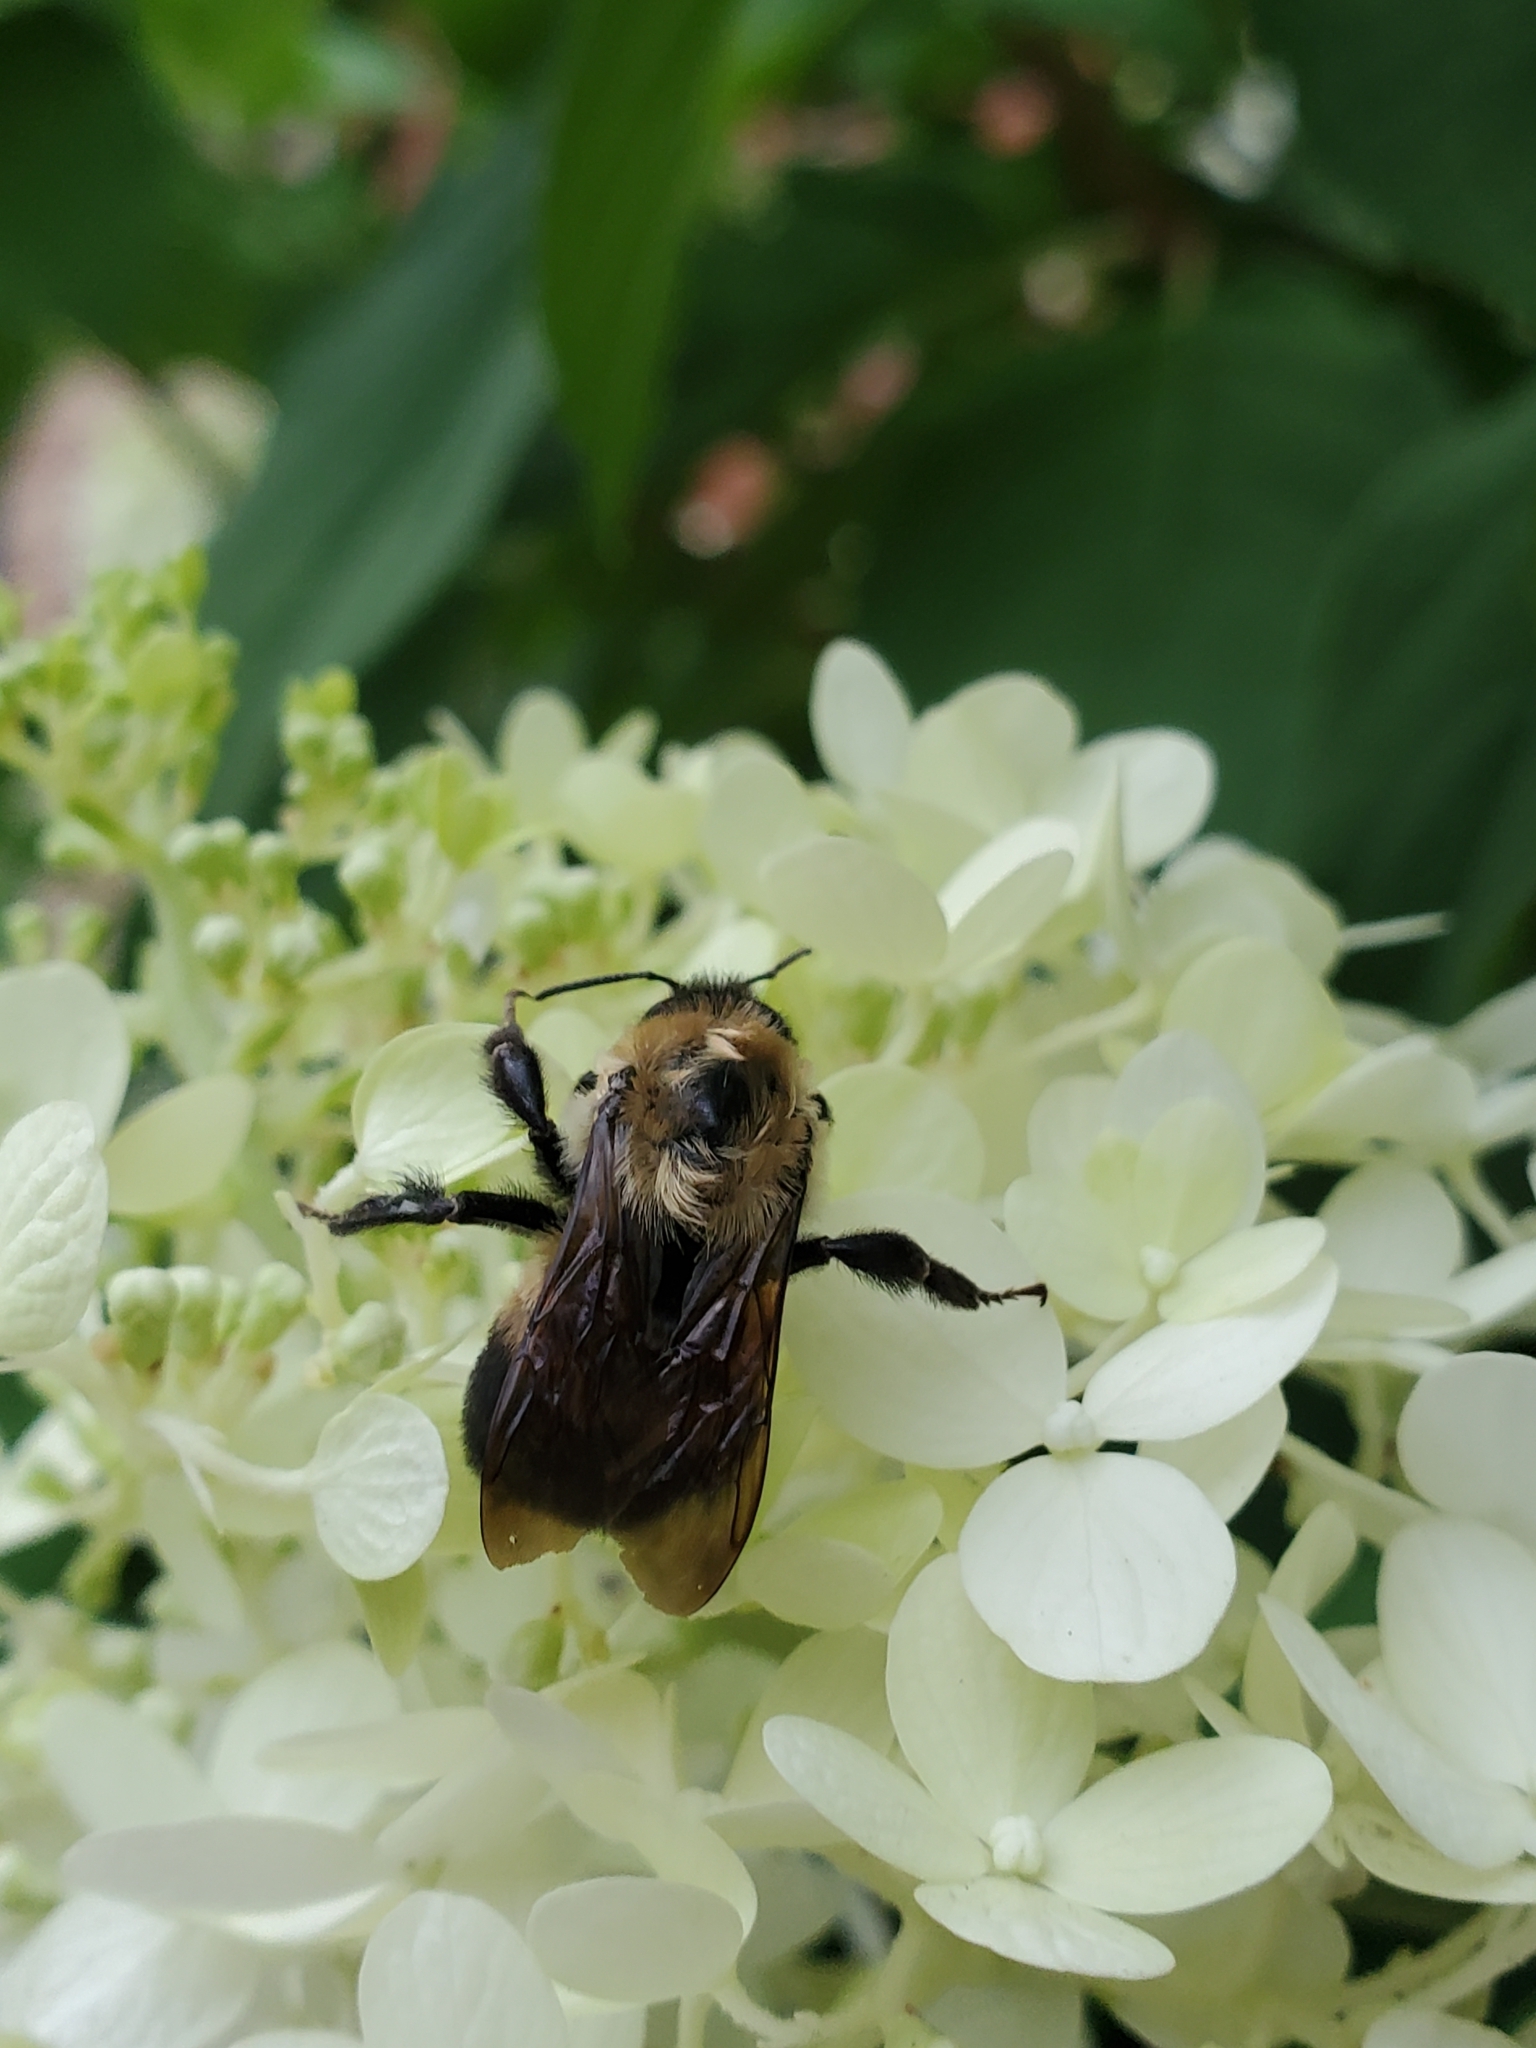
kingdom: Animalia
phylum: Arthropoda
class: Insecta
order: Hymenoptera
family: Apidae
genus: Bombus
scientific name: Bombus griseocollis
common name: Brown-belted bumble bee
